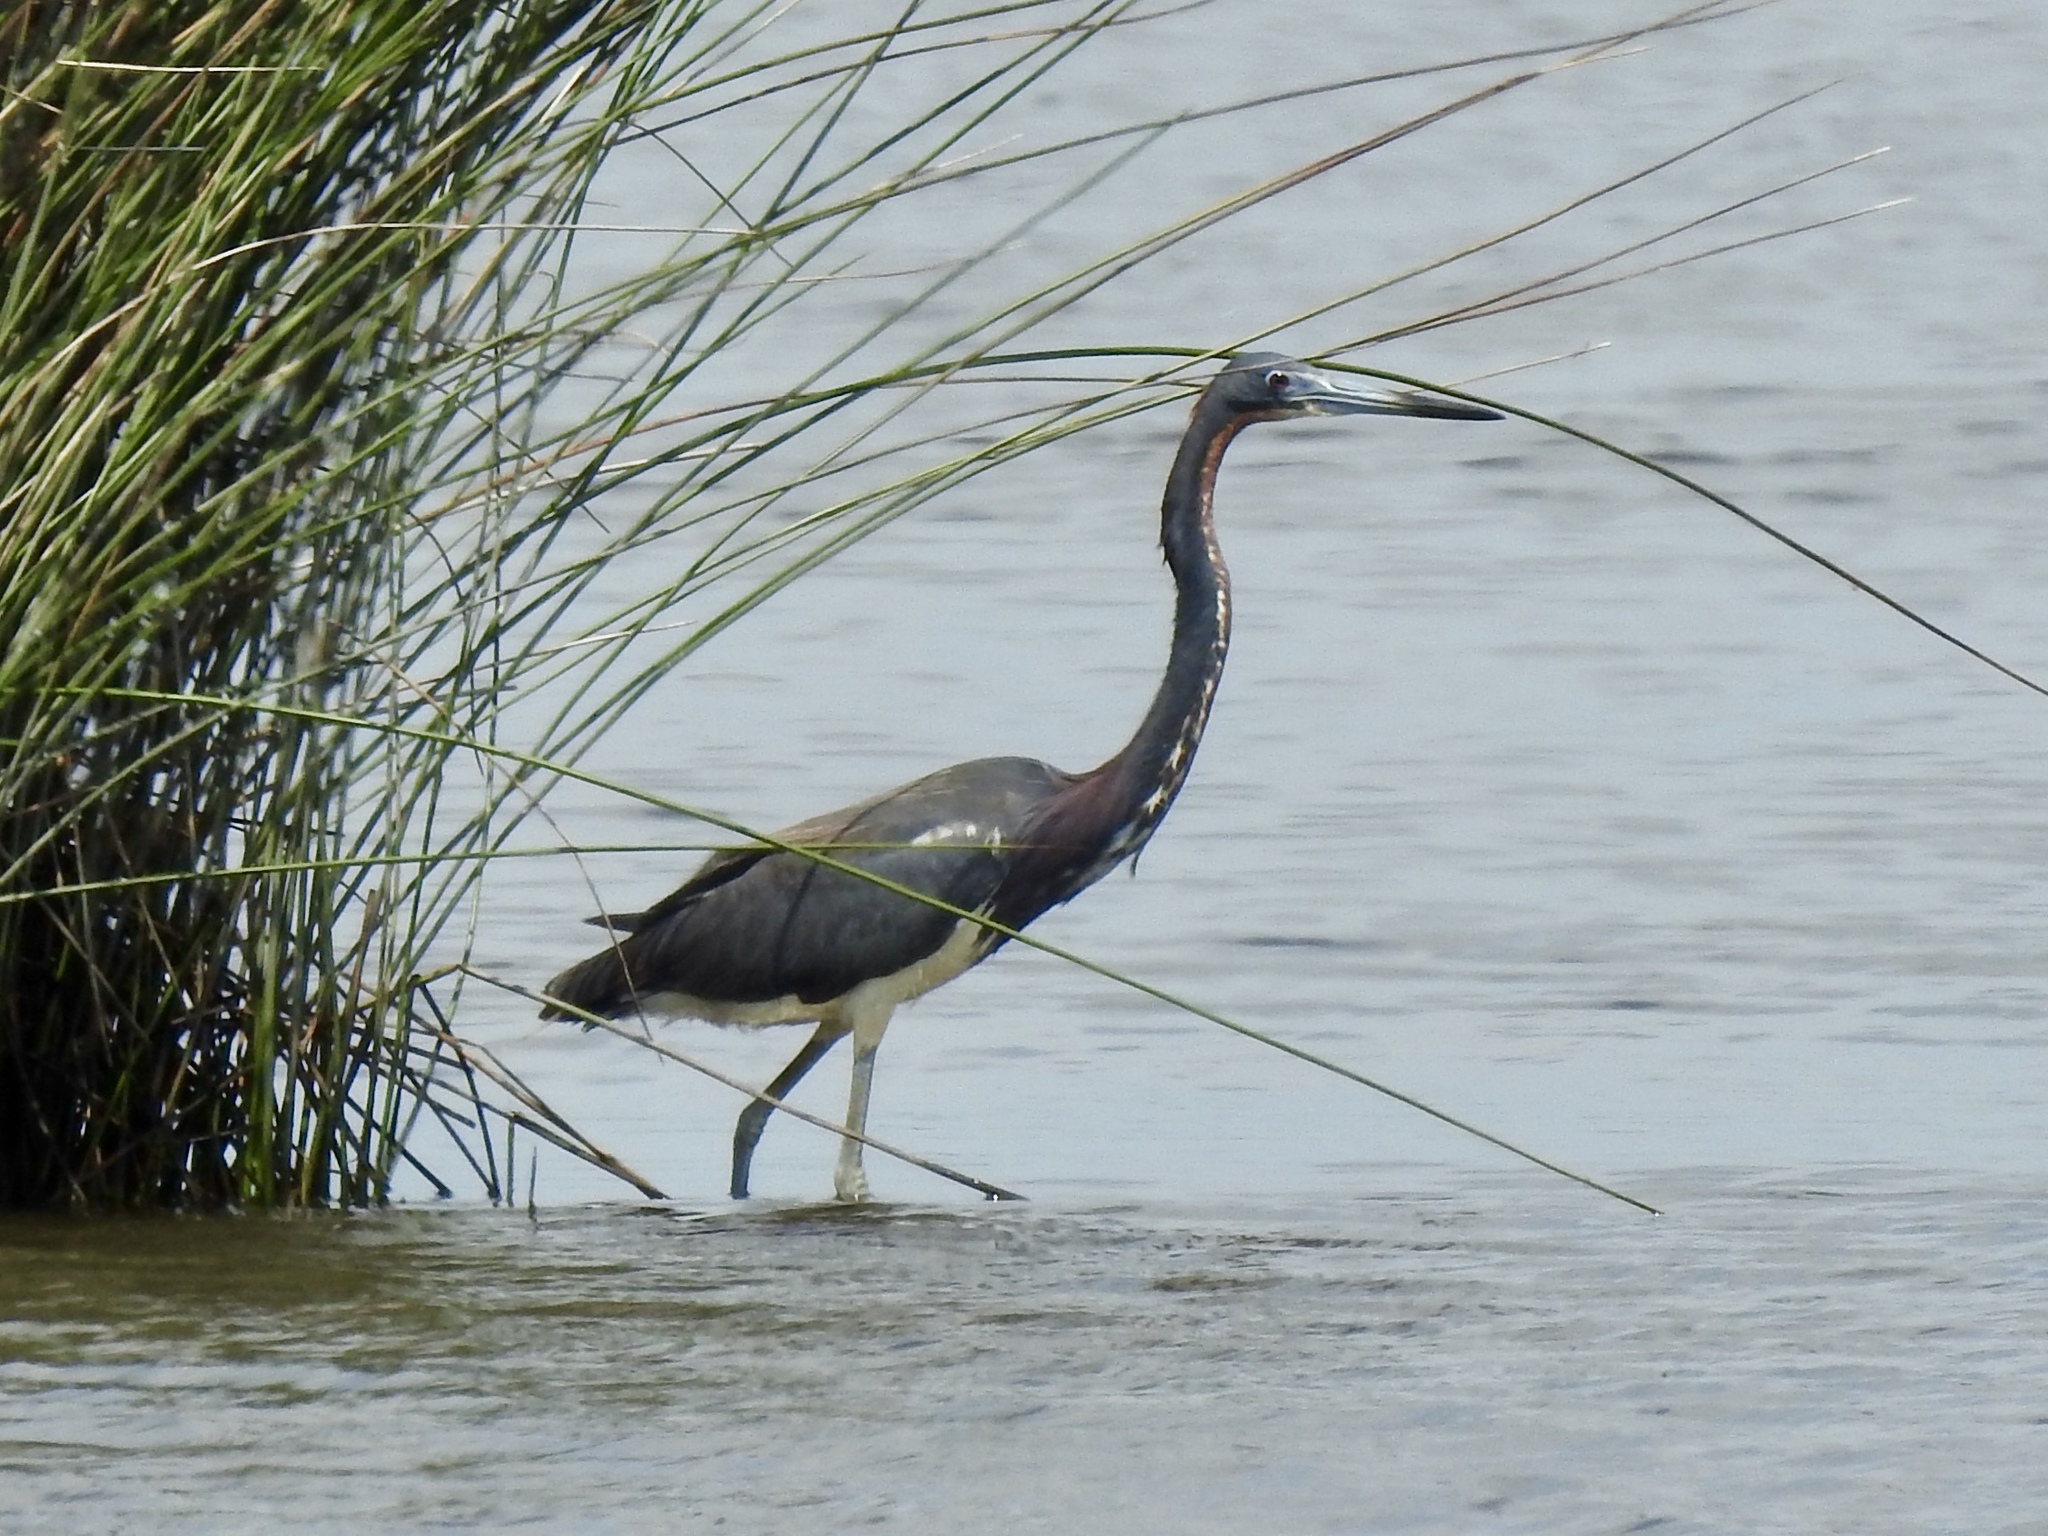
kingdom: Animalia
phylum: Chordata
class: Aves
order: Pelecaniformes
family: Ardeidae
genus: Egretta
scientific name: Egretta tricolor
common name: Tricolored heron
